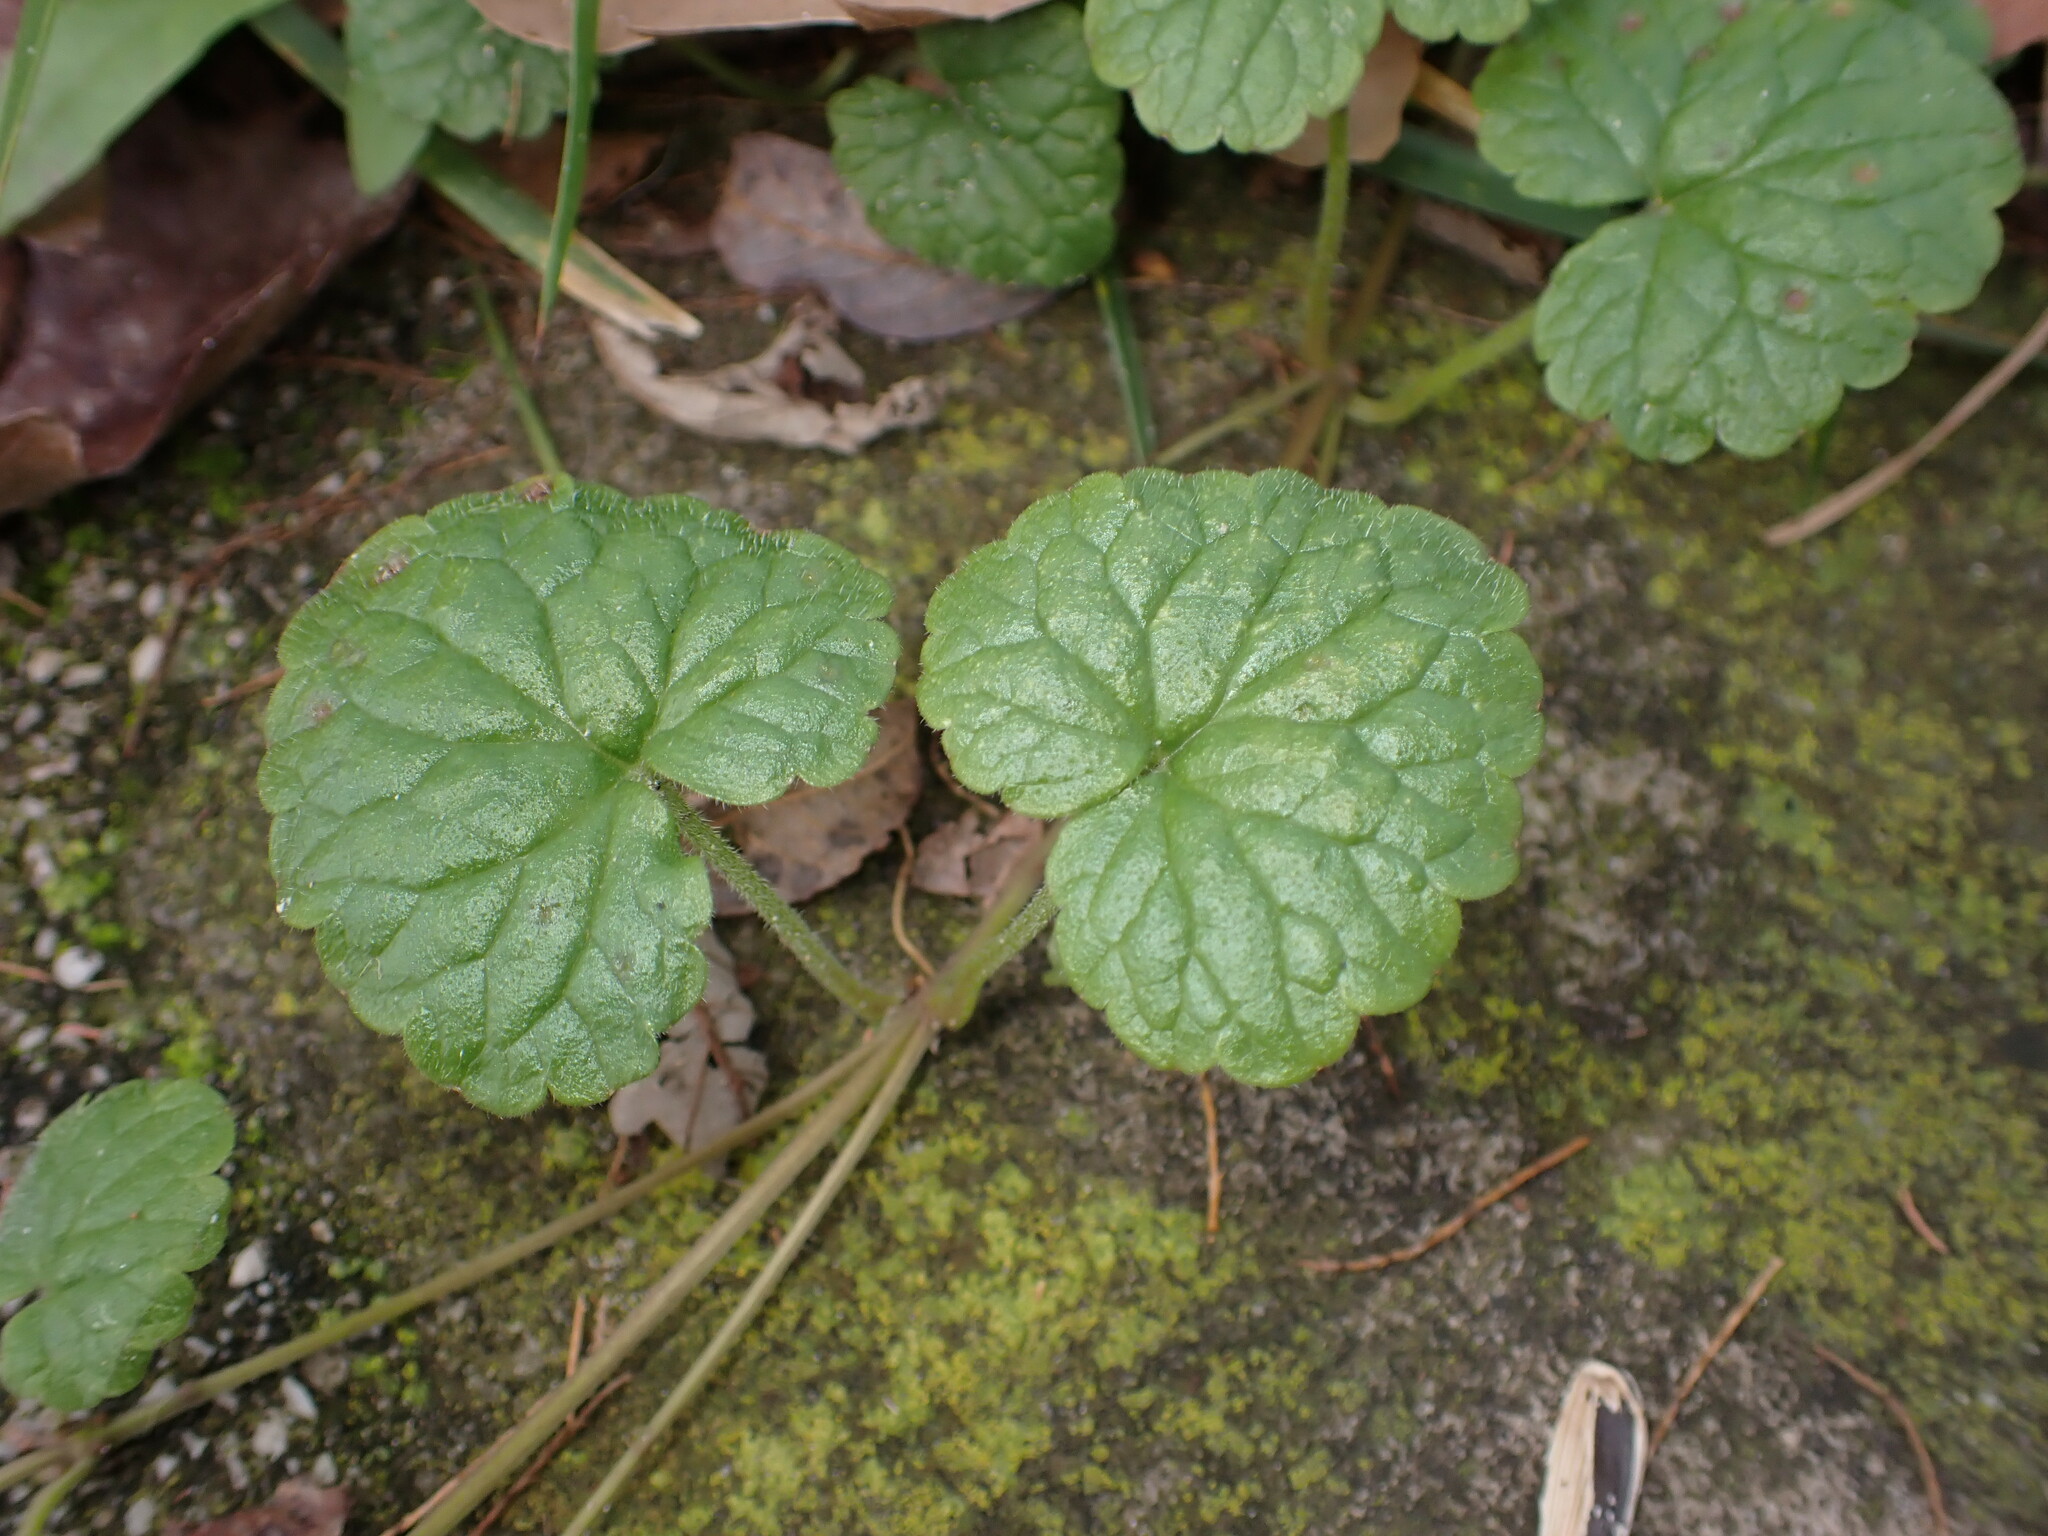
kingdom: Plantae
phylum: Tracheophyta
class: Magnoliopsida
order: Lamiales
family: Lamiaceae
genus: Glechoma
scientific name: Glechoma hederacea
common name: Ground ivy
